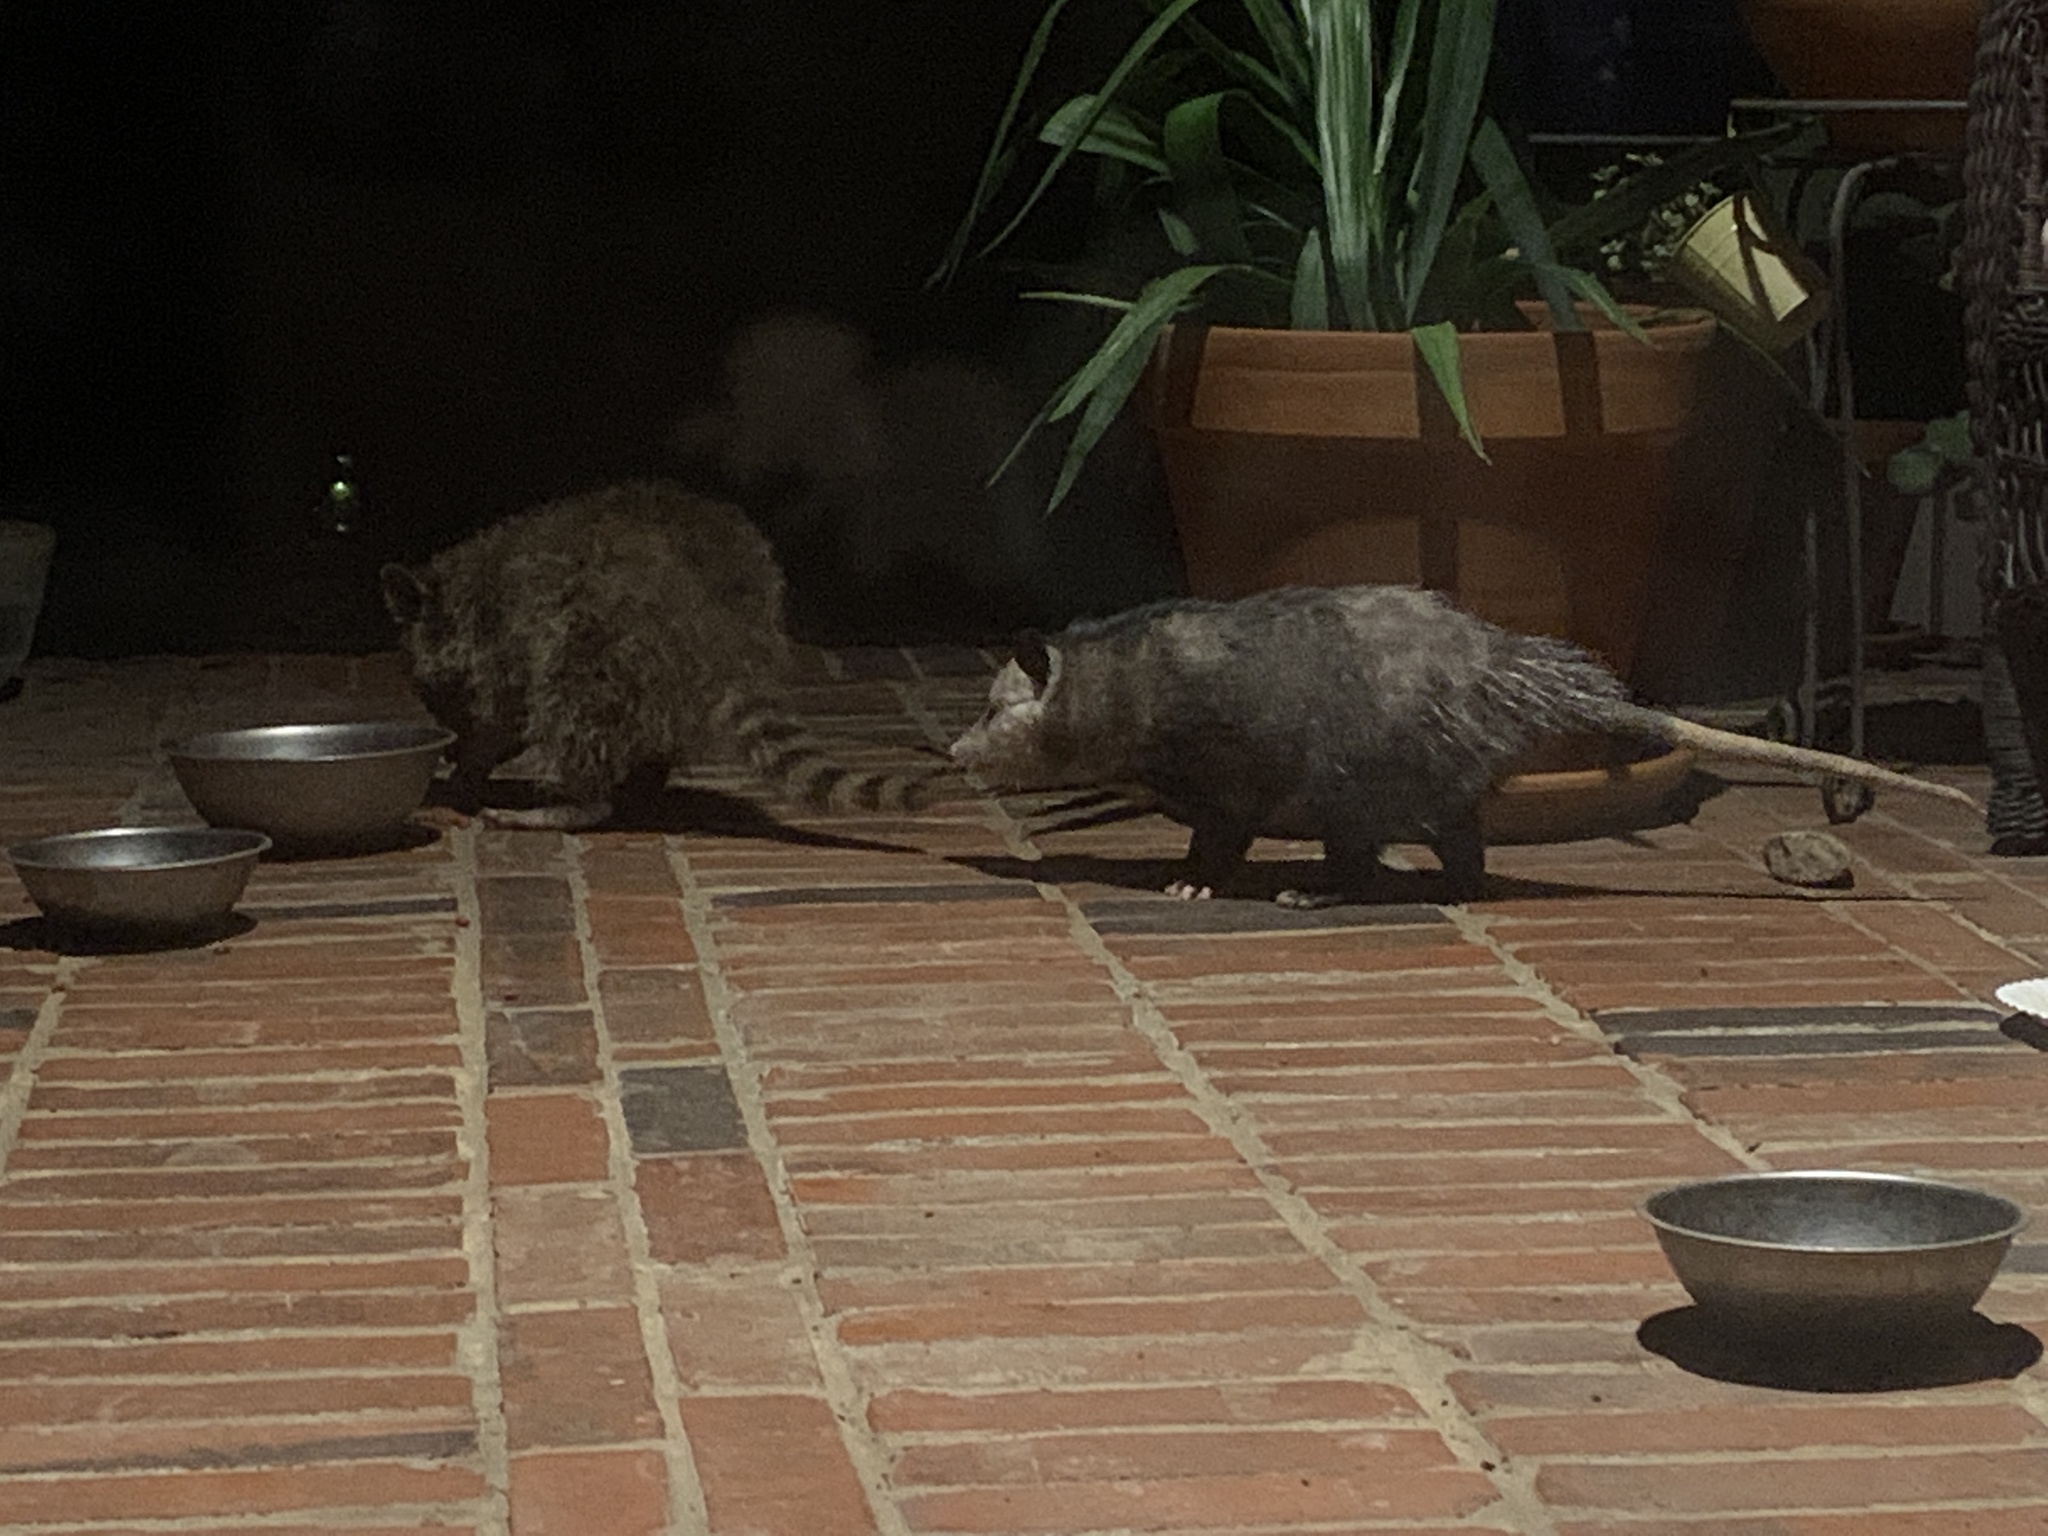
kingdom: Animalia
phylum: Chordata
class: Mammalia
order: Didelphimorphia
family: Didelphidae
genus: Didelphis
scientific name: Didelphis virginiana
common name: Virginia opossum
